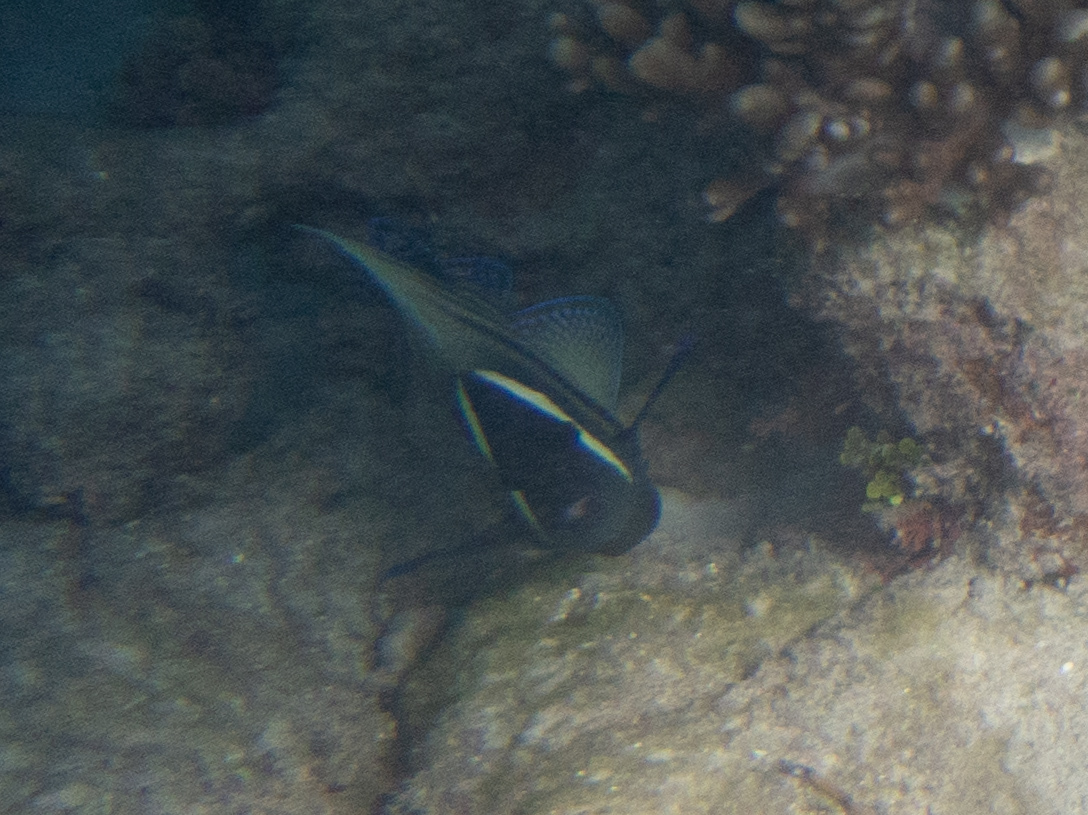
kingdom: Animalia
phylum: Chordata
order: Perciformes
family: Pomacanthidae
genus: Pomacanthus
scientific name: Pomacanthus sexstriatus
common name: Six-banded angelfish
